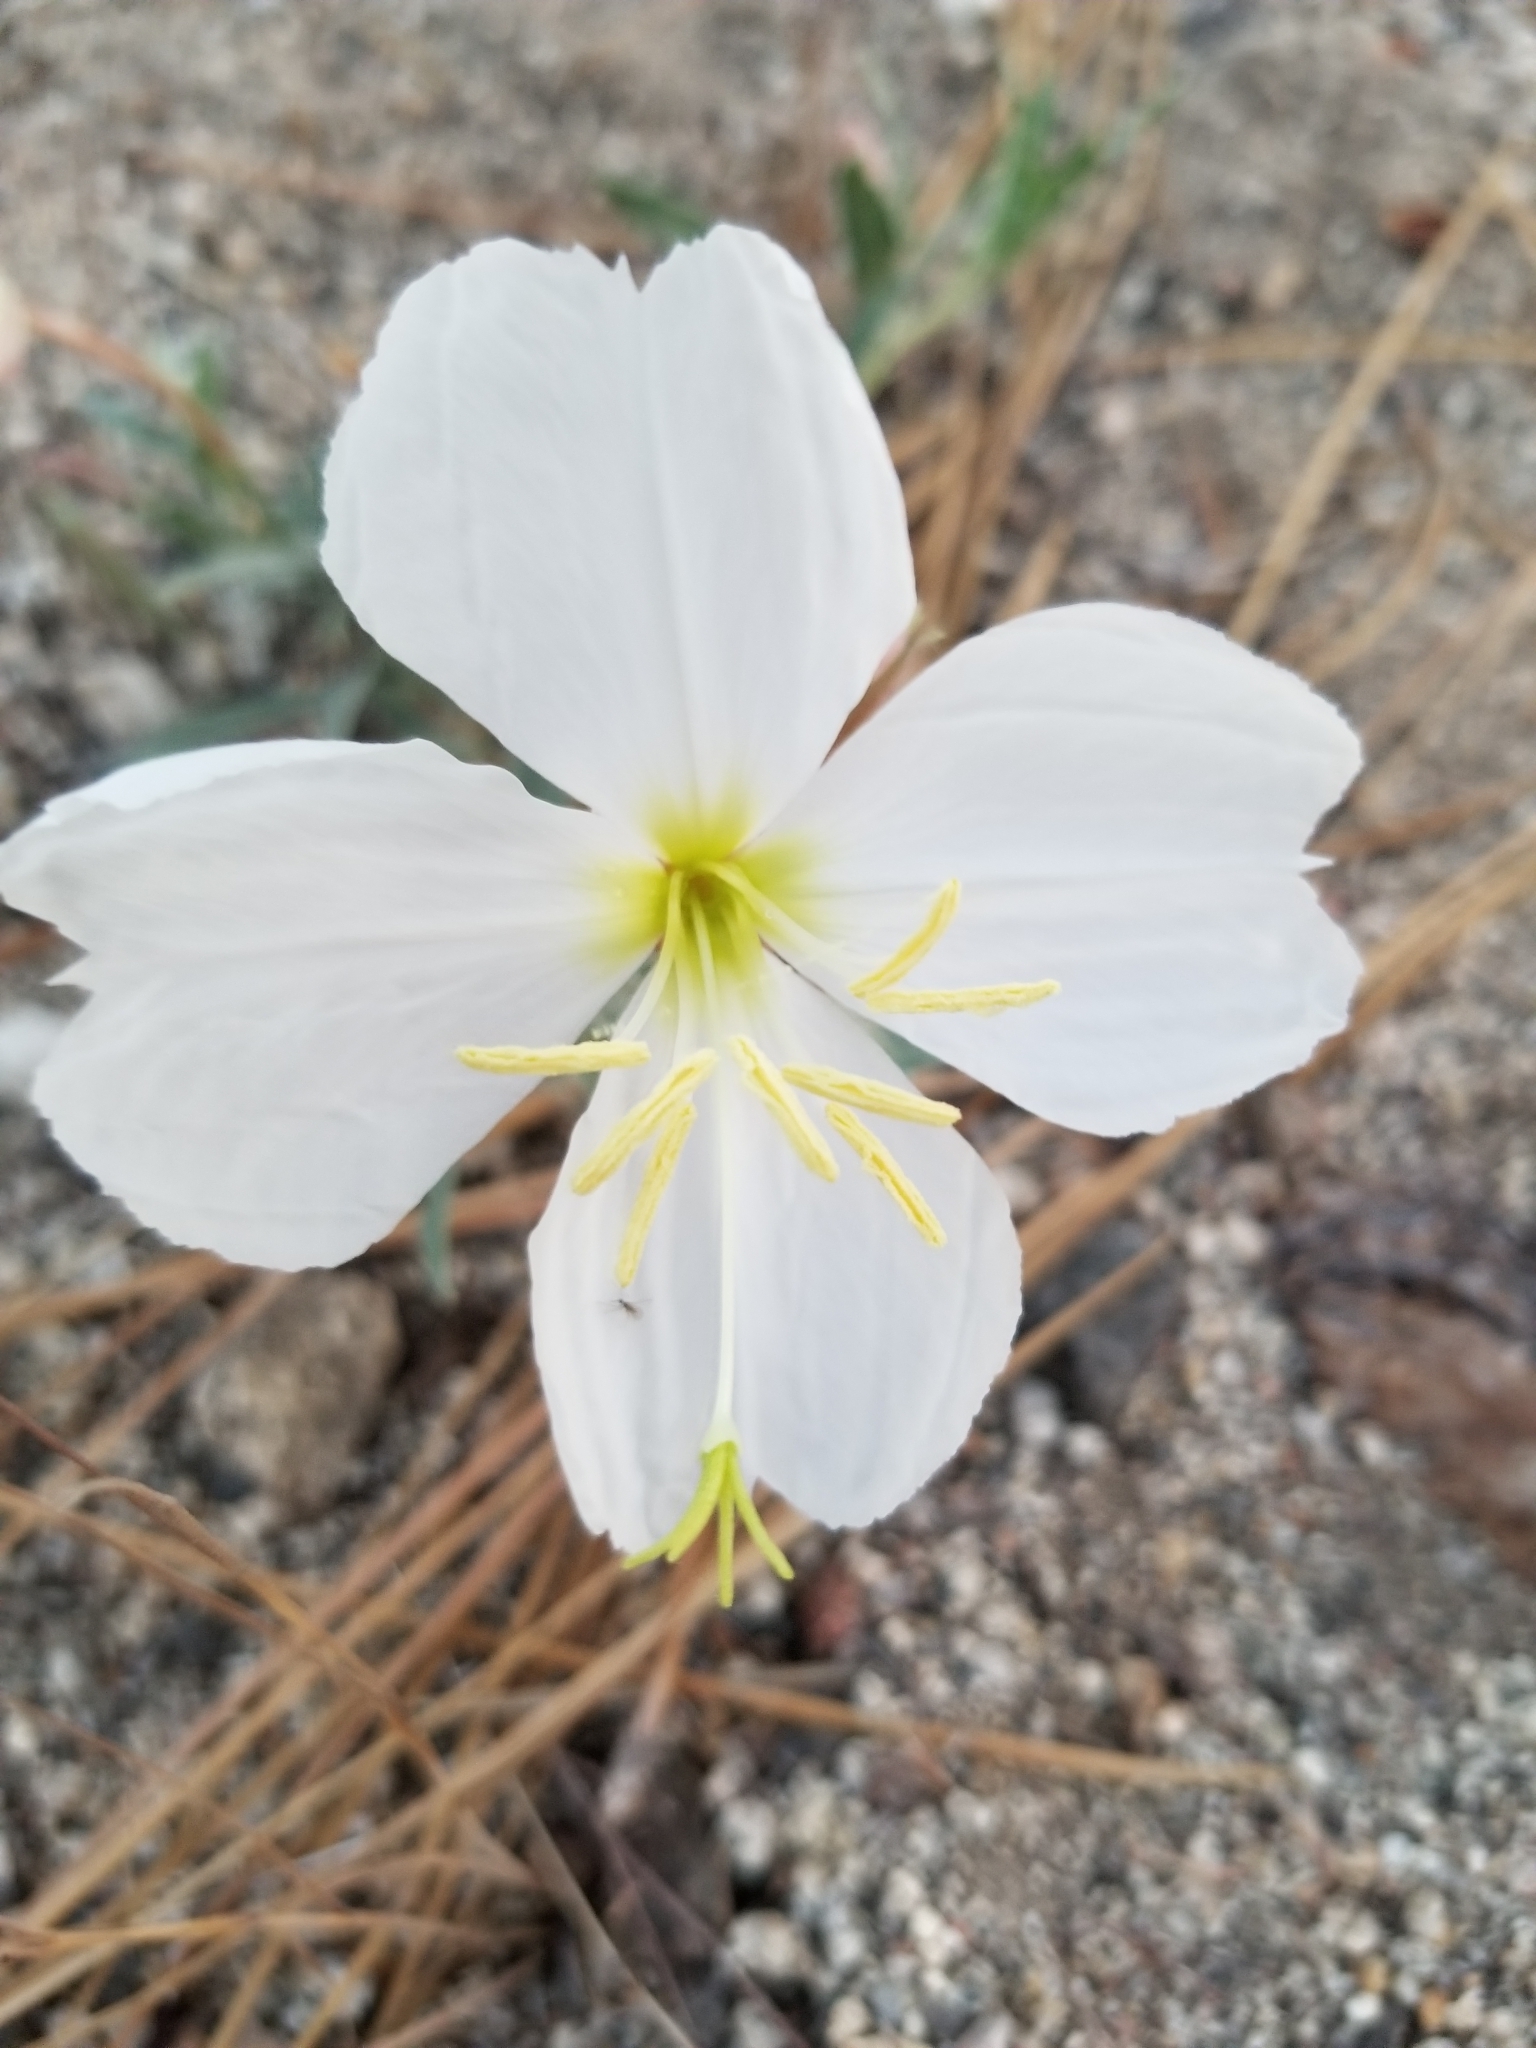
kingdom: Plantae
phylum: Tracheophyta
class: Magnoliopsida
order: Myrtales
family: Onagraceae
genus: Oenothera
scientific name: Oenothera californica
